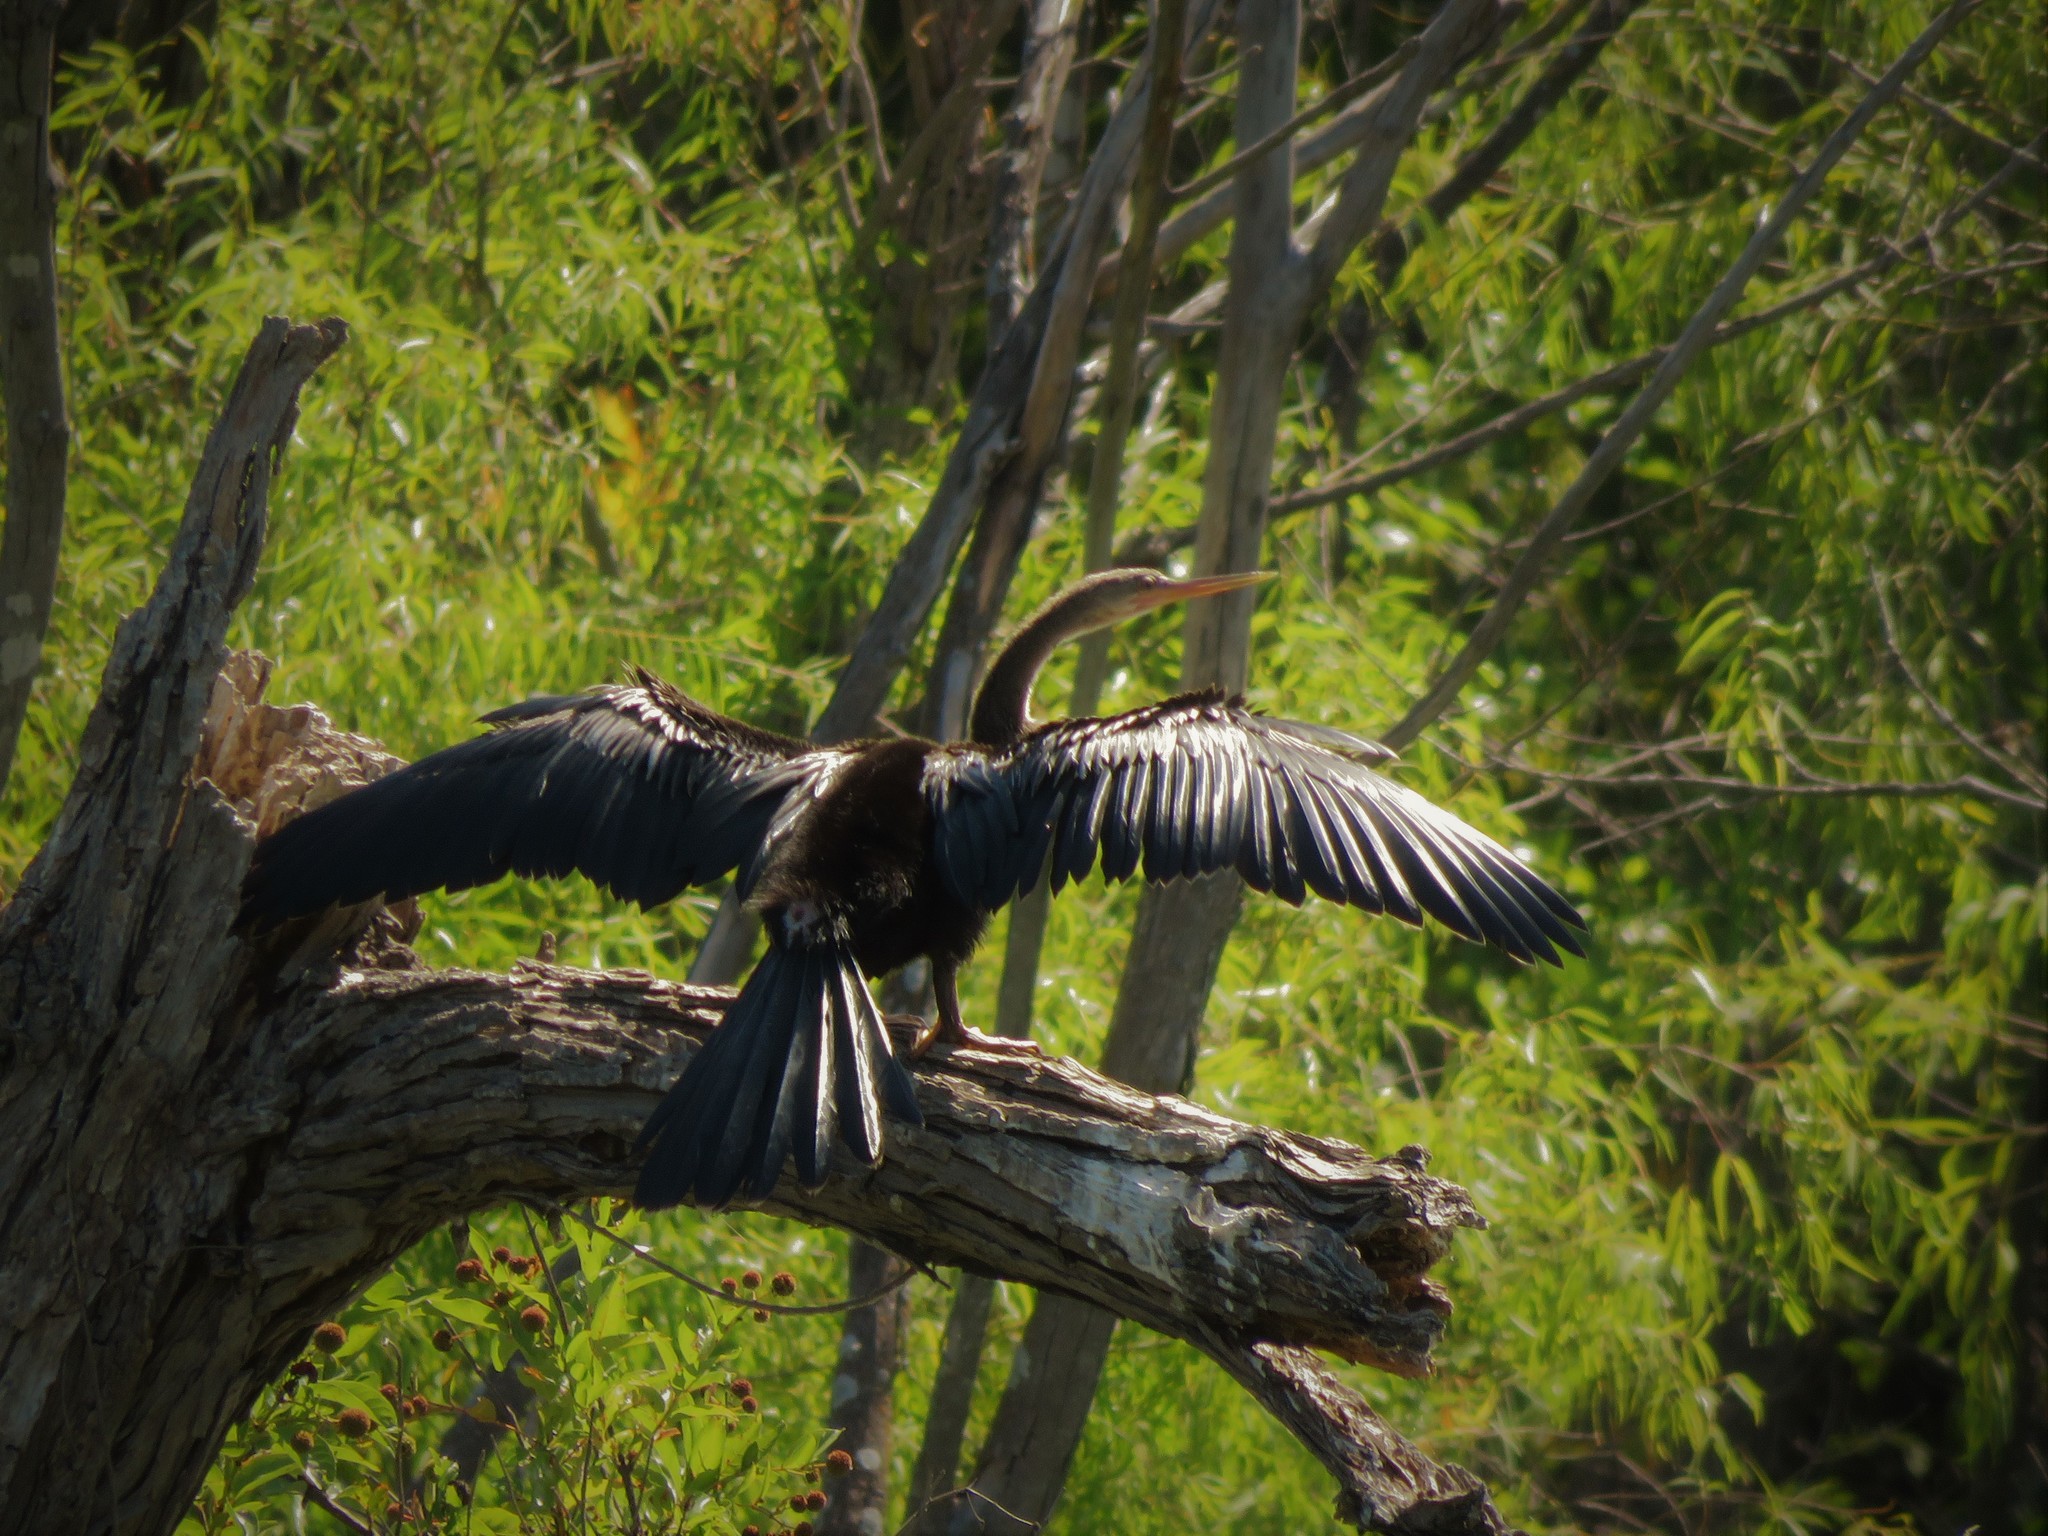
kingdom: Animalia
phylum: Chordata
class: Aves
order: Suliformes
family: Anhingidae
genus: Anhinga
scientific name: Anhinga anhinga
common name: Anhinga
